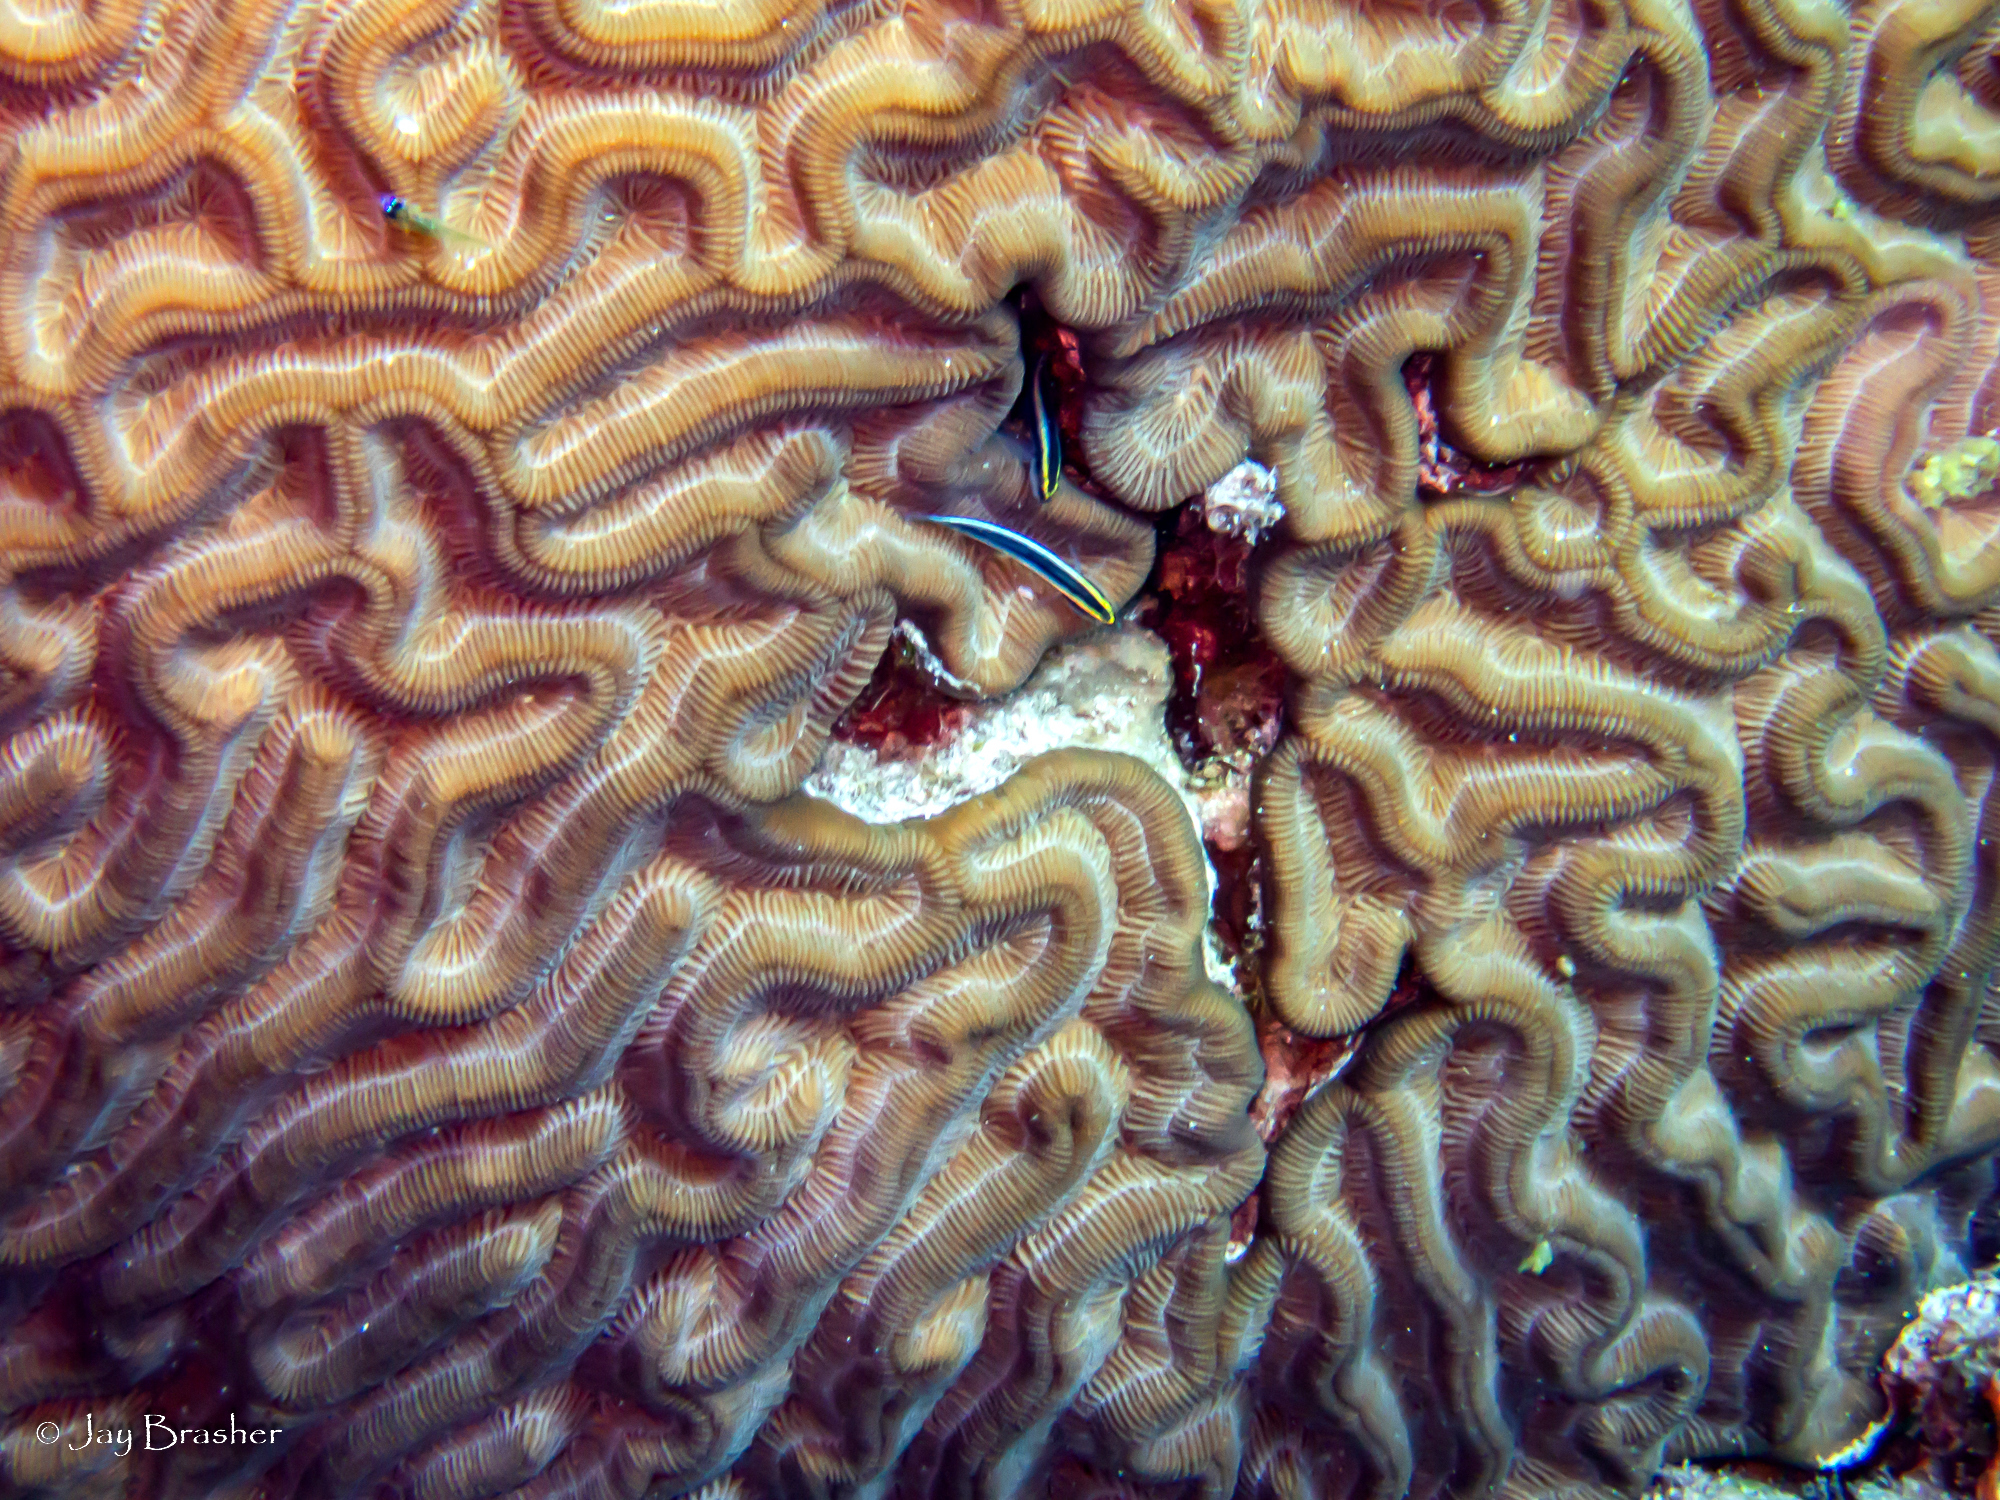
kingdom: Animalia
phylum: Cnidaria
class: Anthozoa
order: Scleractinia
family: Faviidae
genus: Colpophyllia
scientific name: Colpophyllia natans
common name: Boulder brain coral
